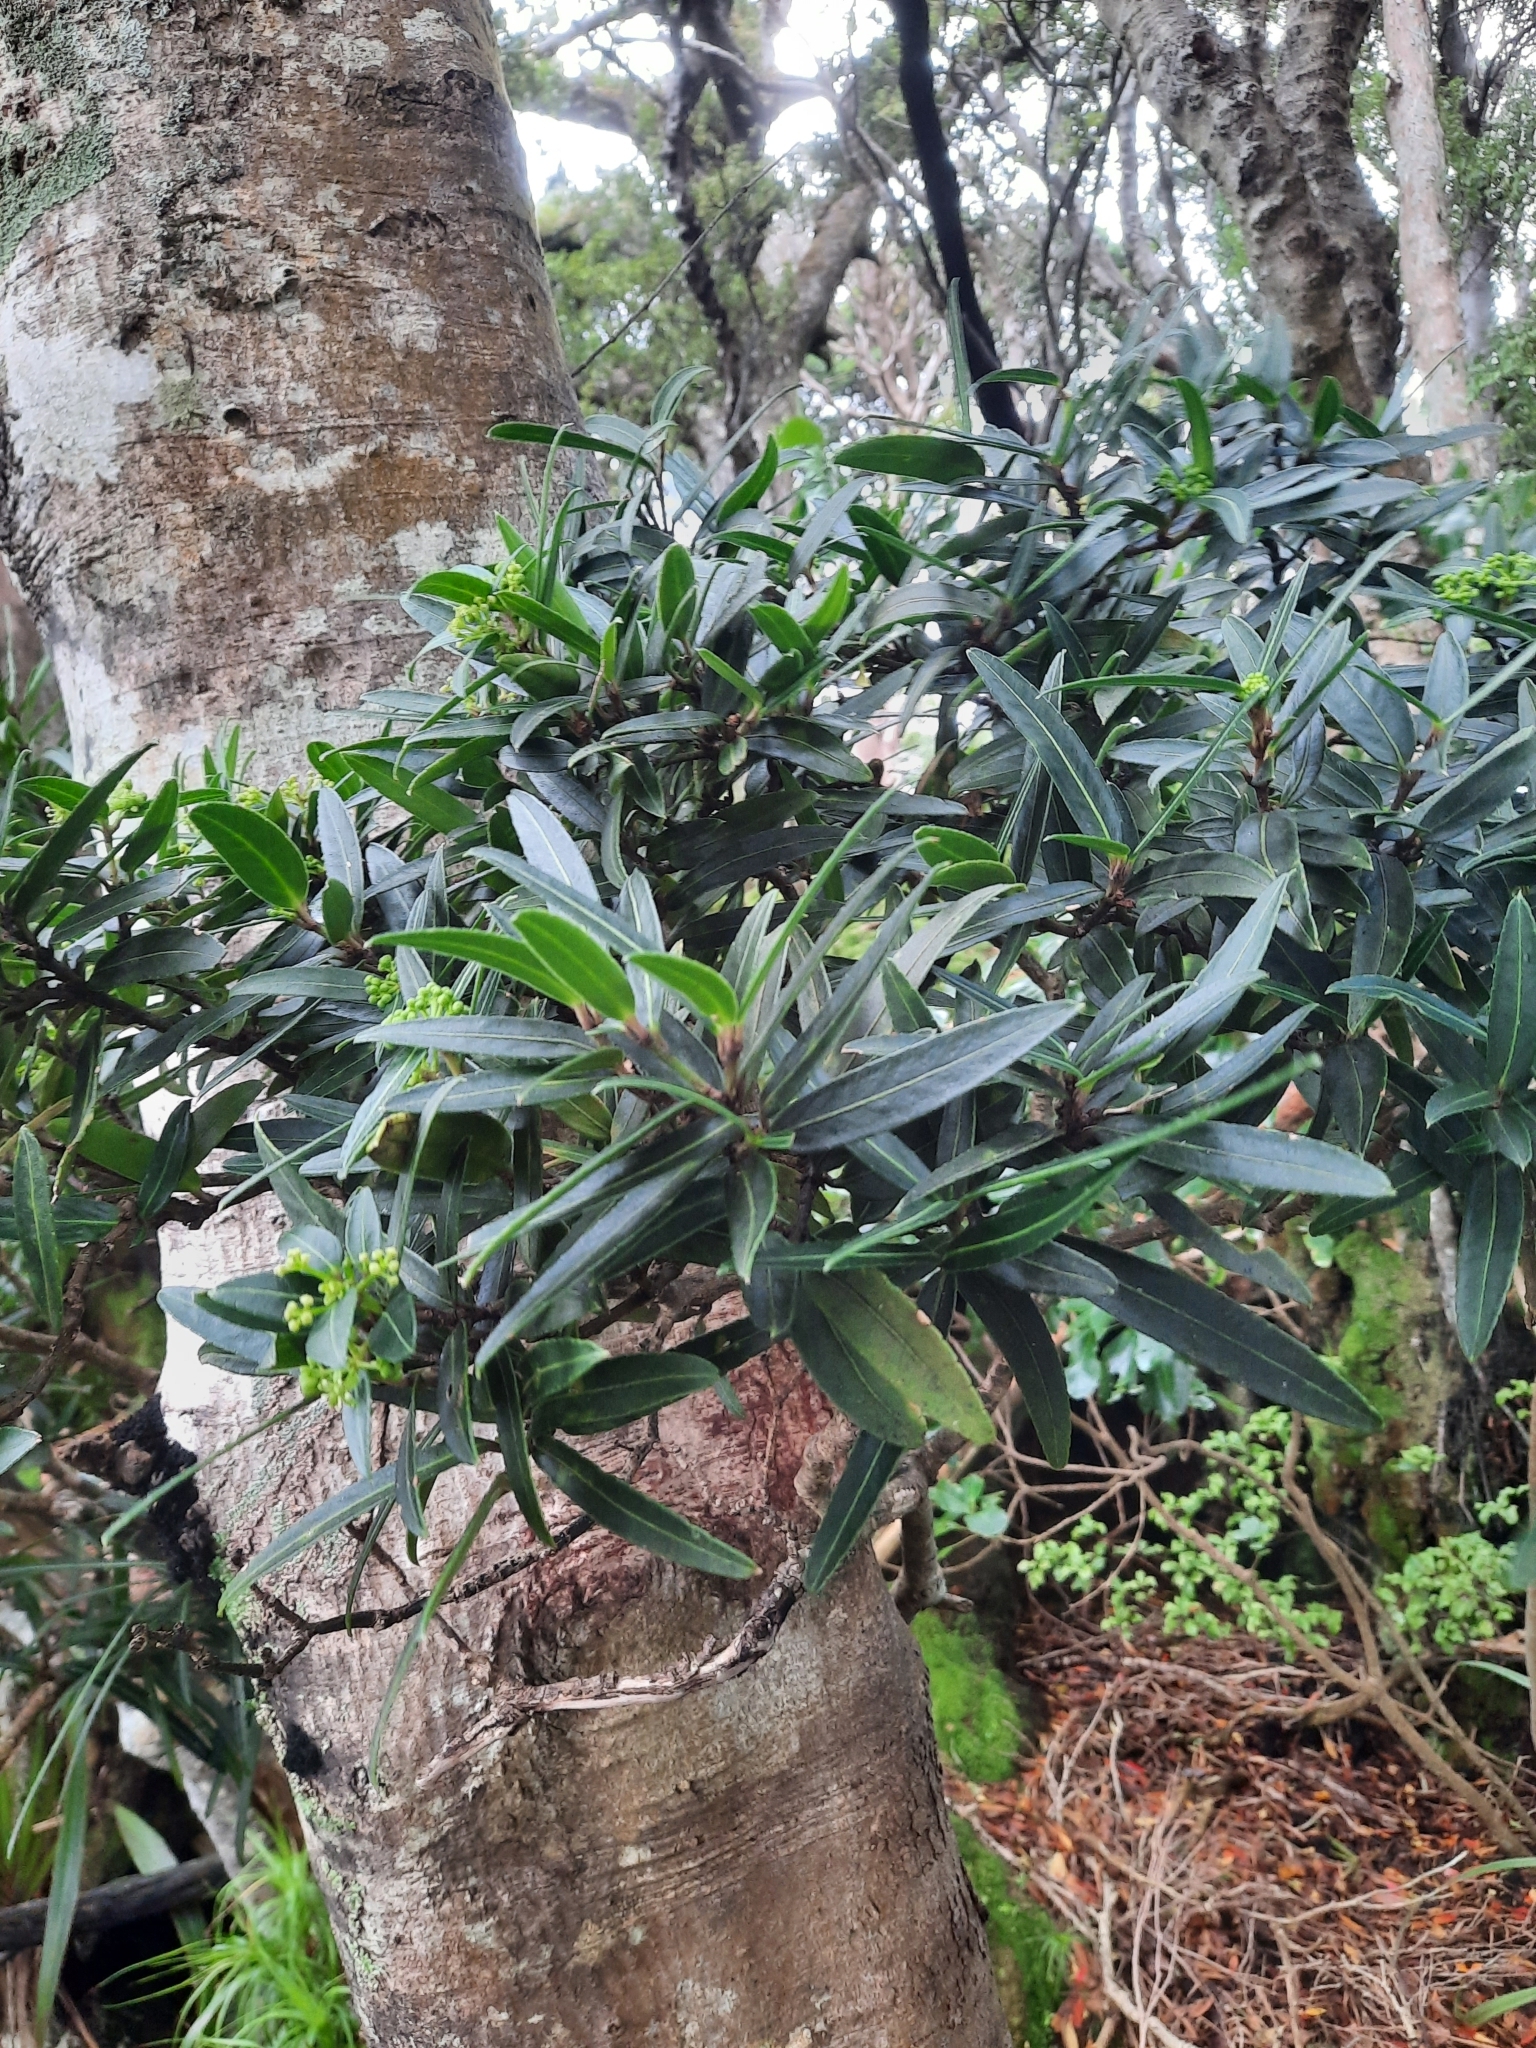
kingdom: Plantae
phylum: Tracheophyta
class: Magnoliopsida
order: Apiales
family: Araliaceae
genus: Pseudopanax
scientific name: Pseudopanax linearis
